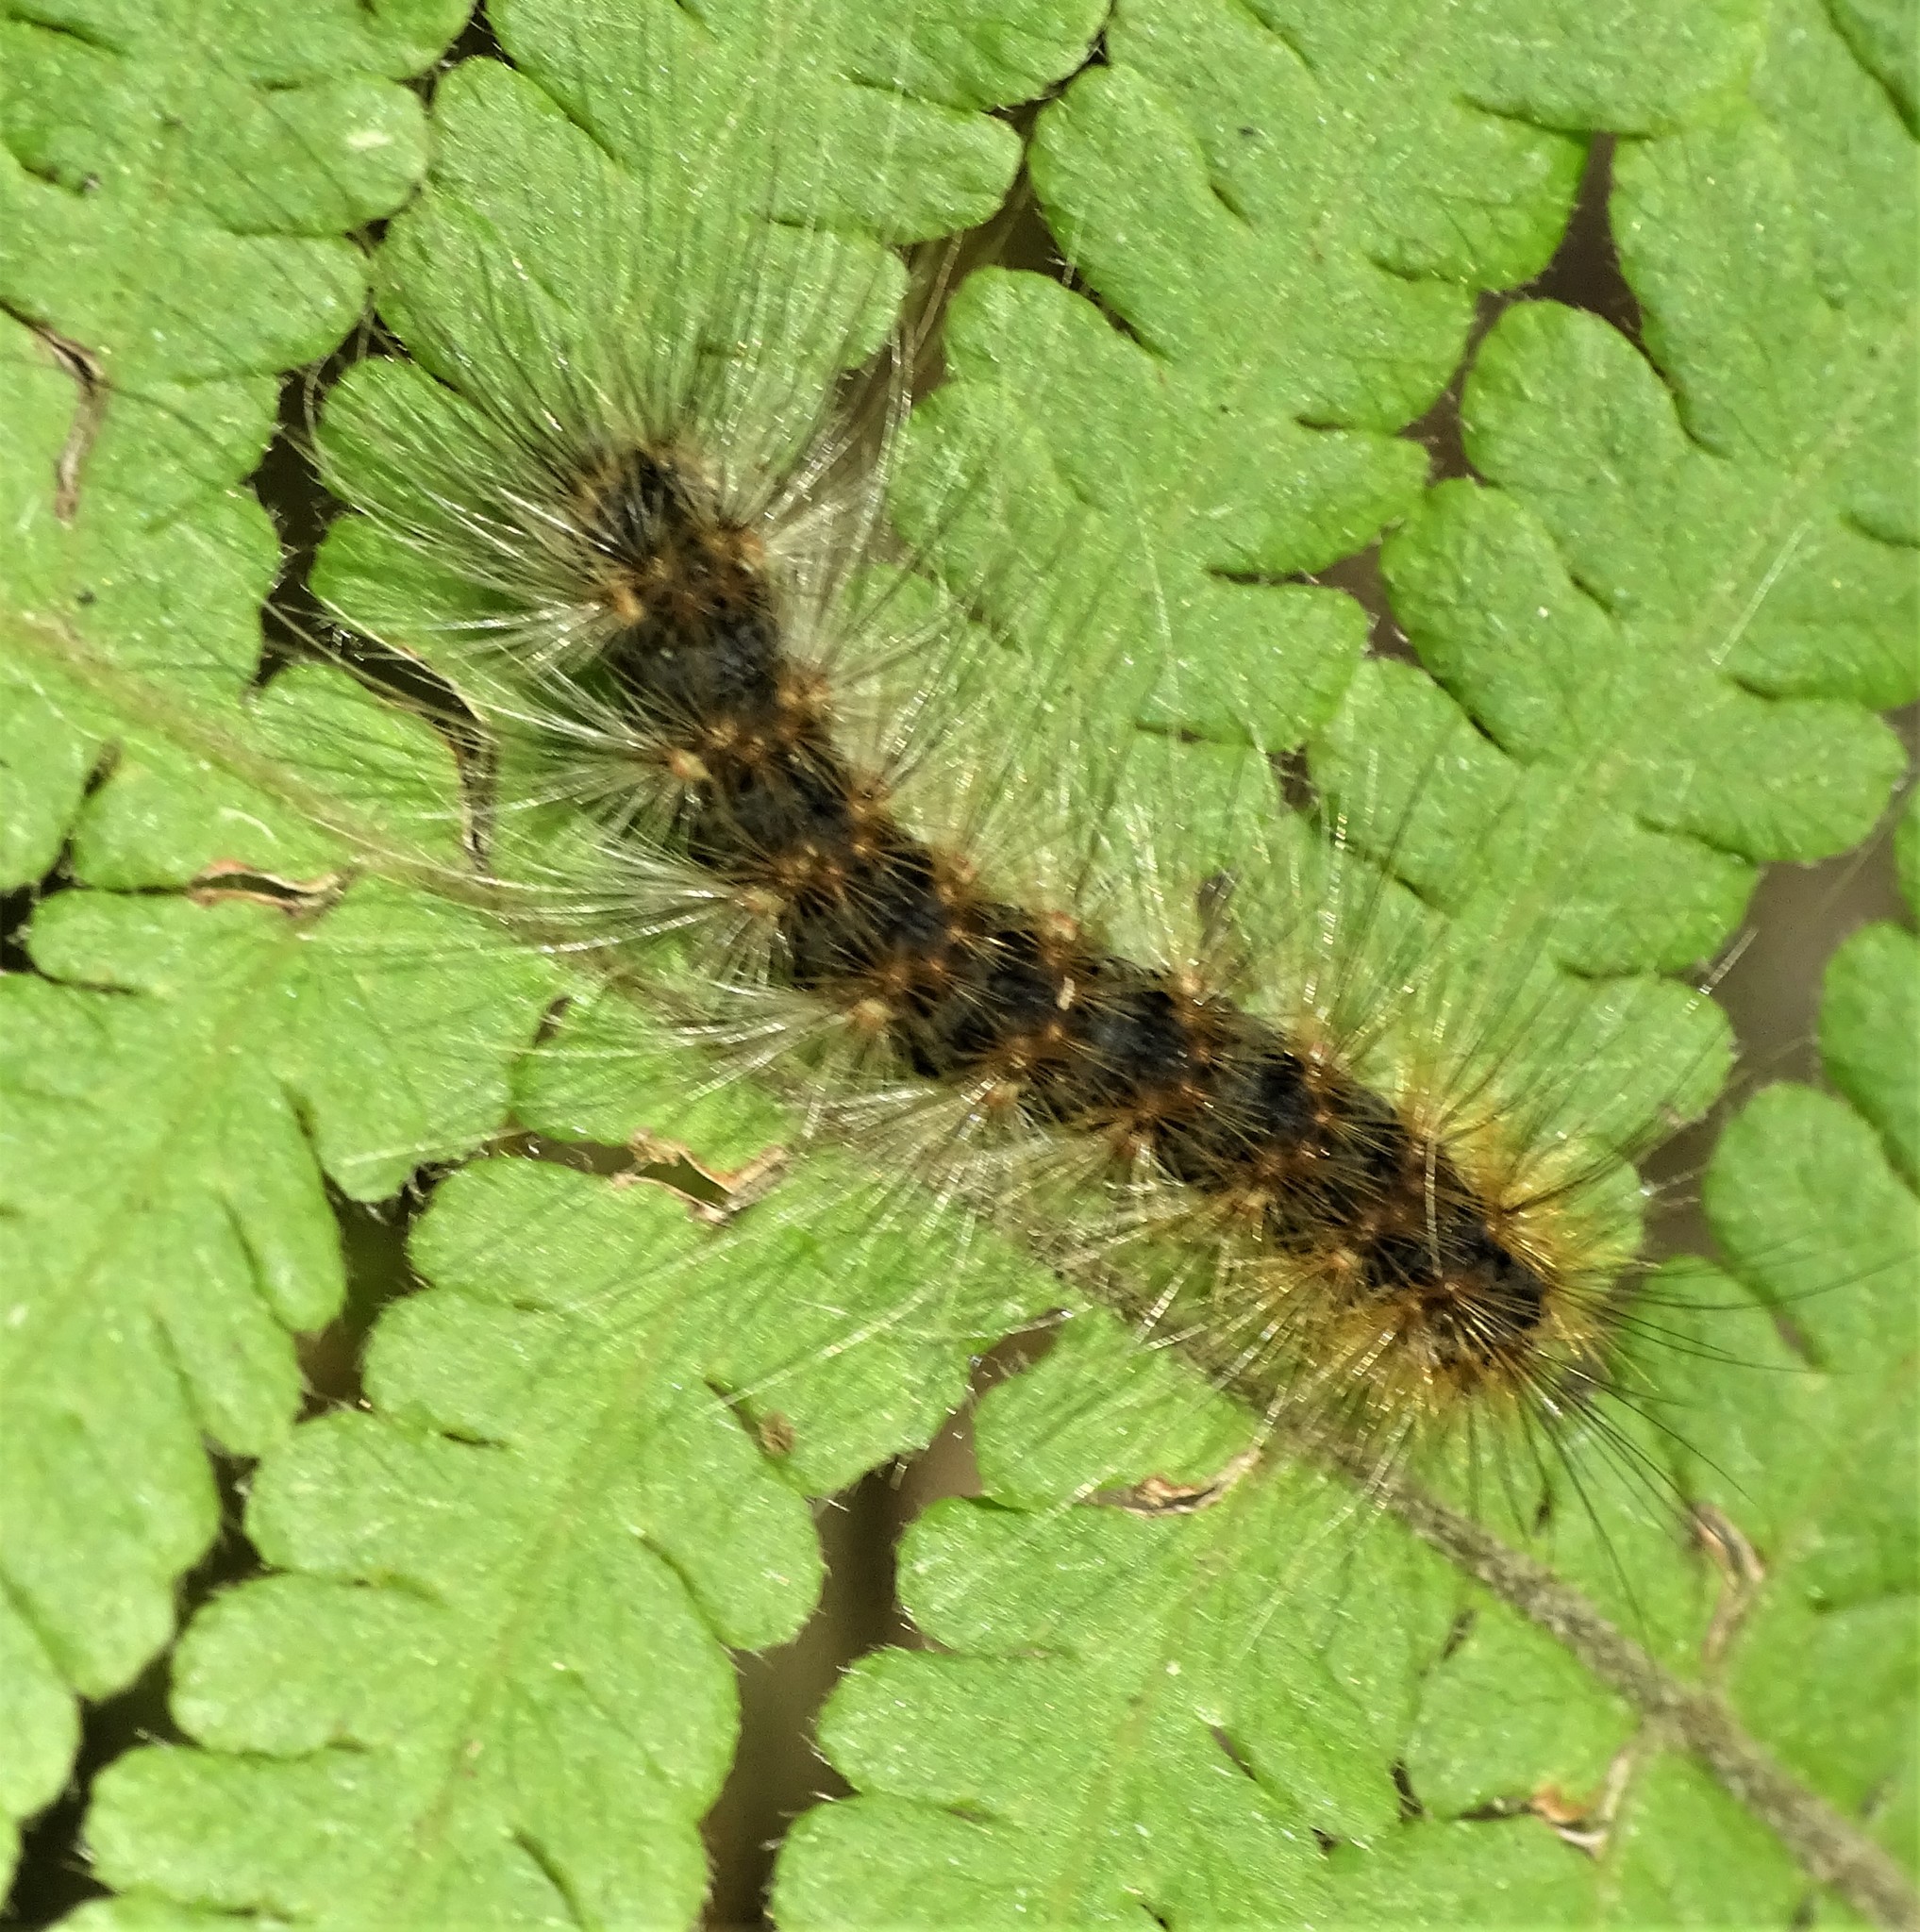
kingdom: Animalia
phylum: Arthropoda
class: Insecta
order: Lepidoptera
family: Erebidae
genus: Hyphantria
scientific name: Hyphantria cunea
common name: American white moth
